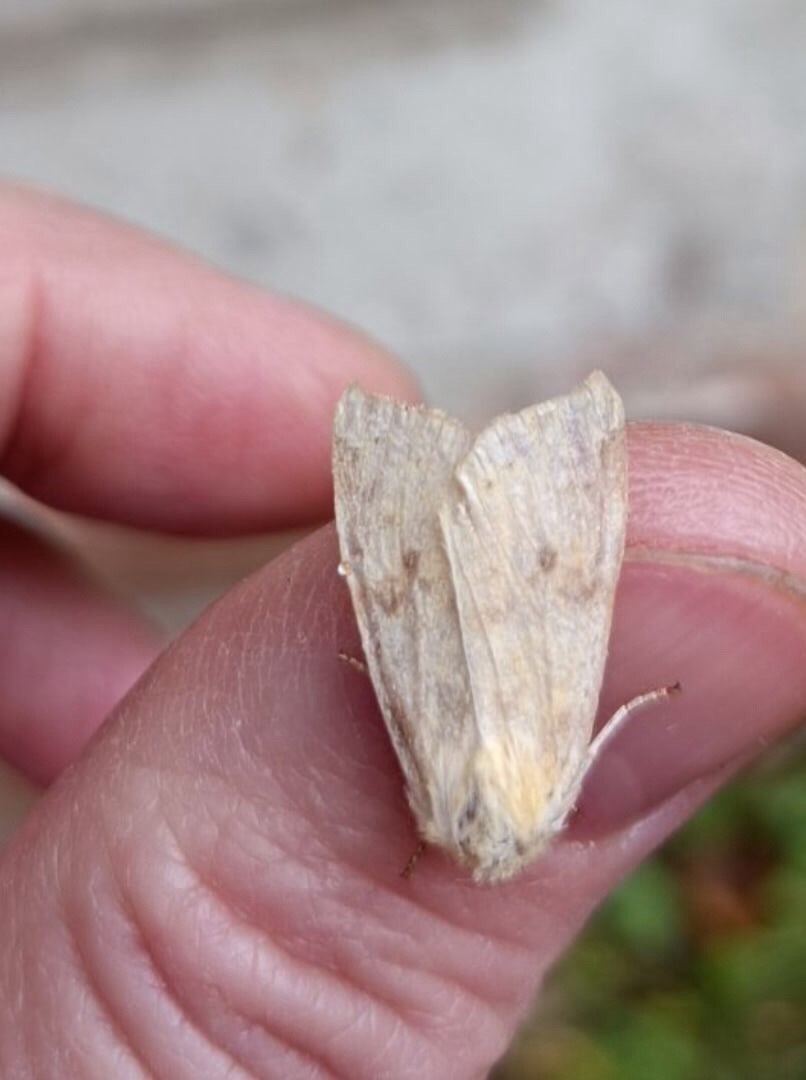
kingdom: Animalia
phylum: Arthropoda
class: Insecta
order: Lepidoptera
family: Noctuidae
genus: Xanthia
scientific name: Xanthia icteritia
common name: The sallow
